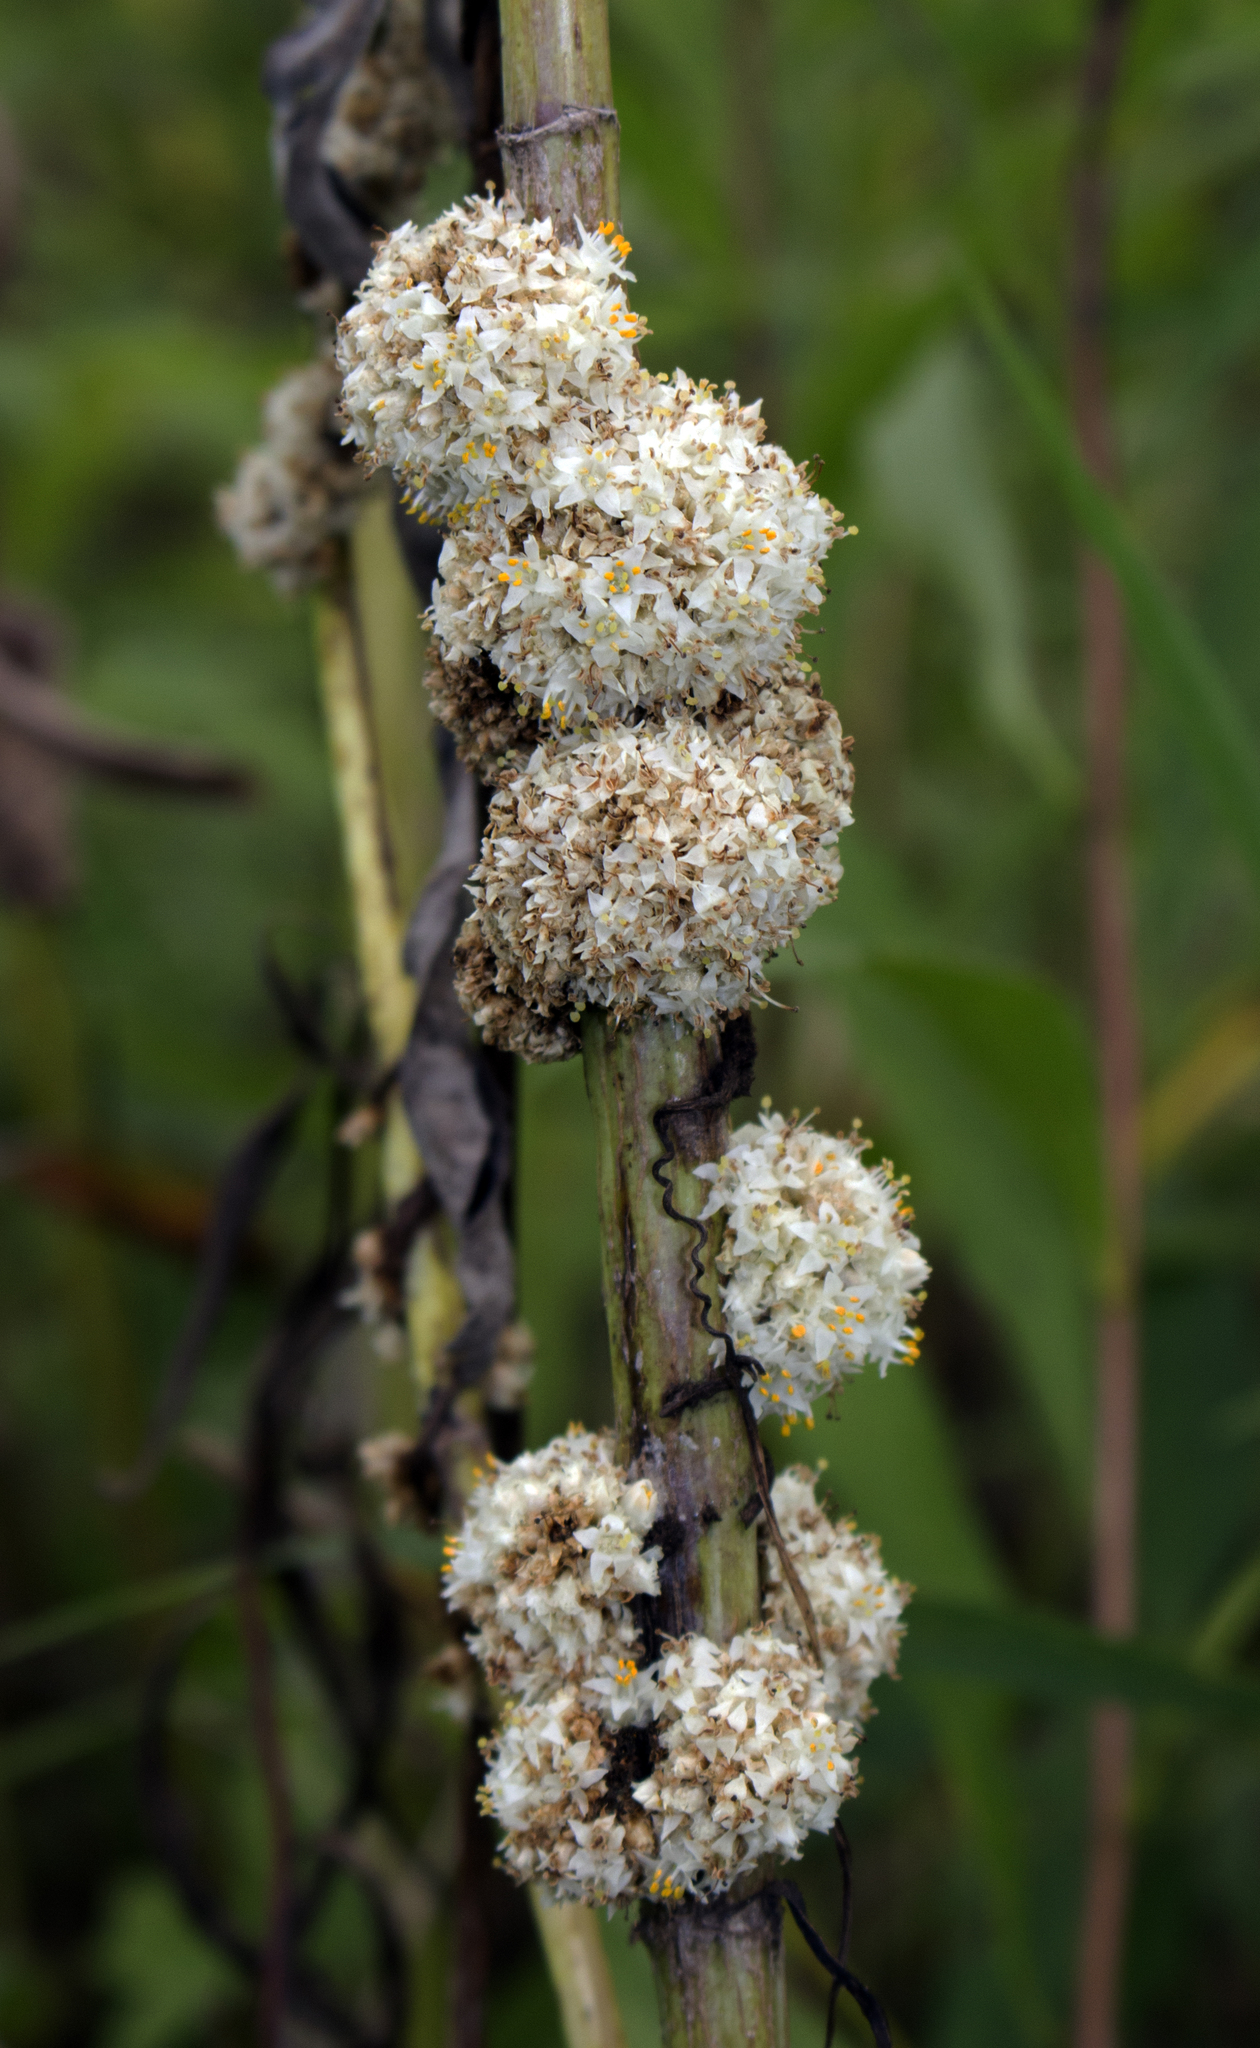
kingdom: Plantae
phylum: Tracheophyta
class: Magnoliopsida
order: Solanales
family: Convolvulaceae
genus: Cuscuta
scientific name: Cuscuta glomerata
